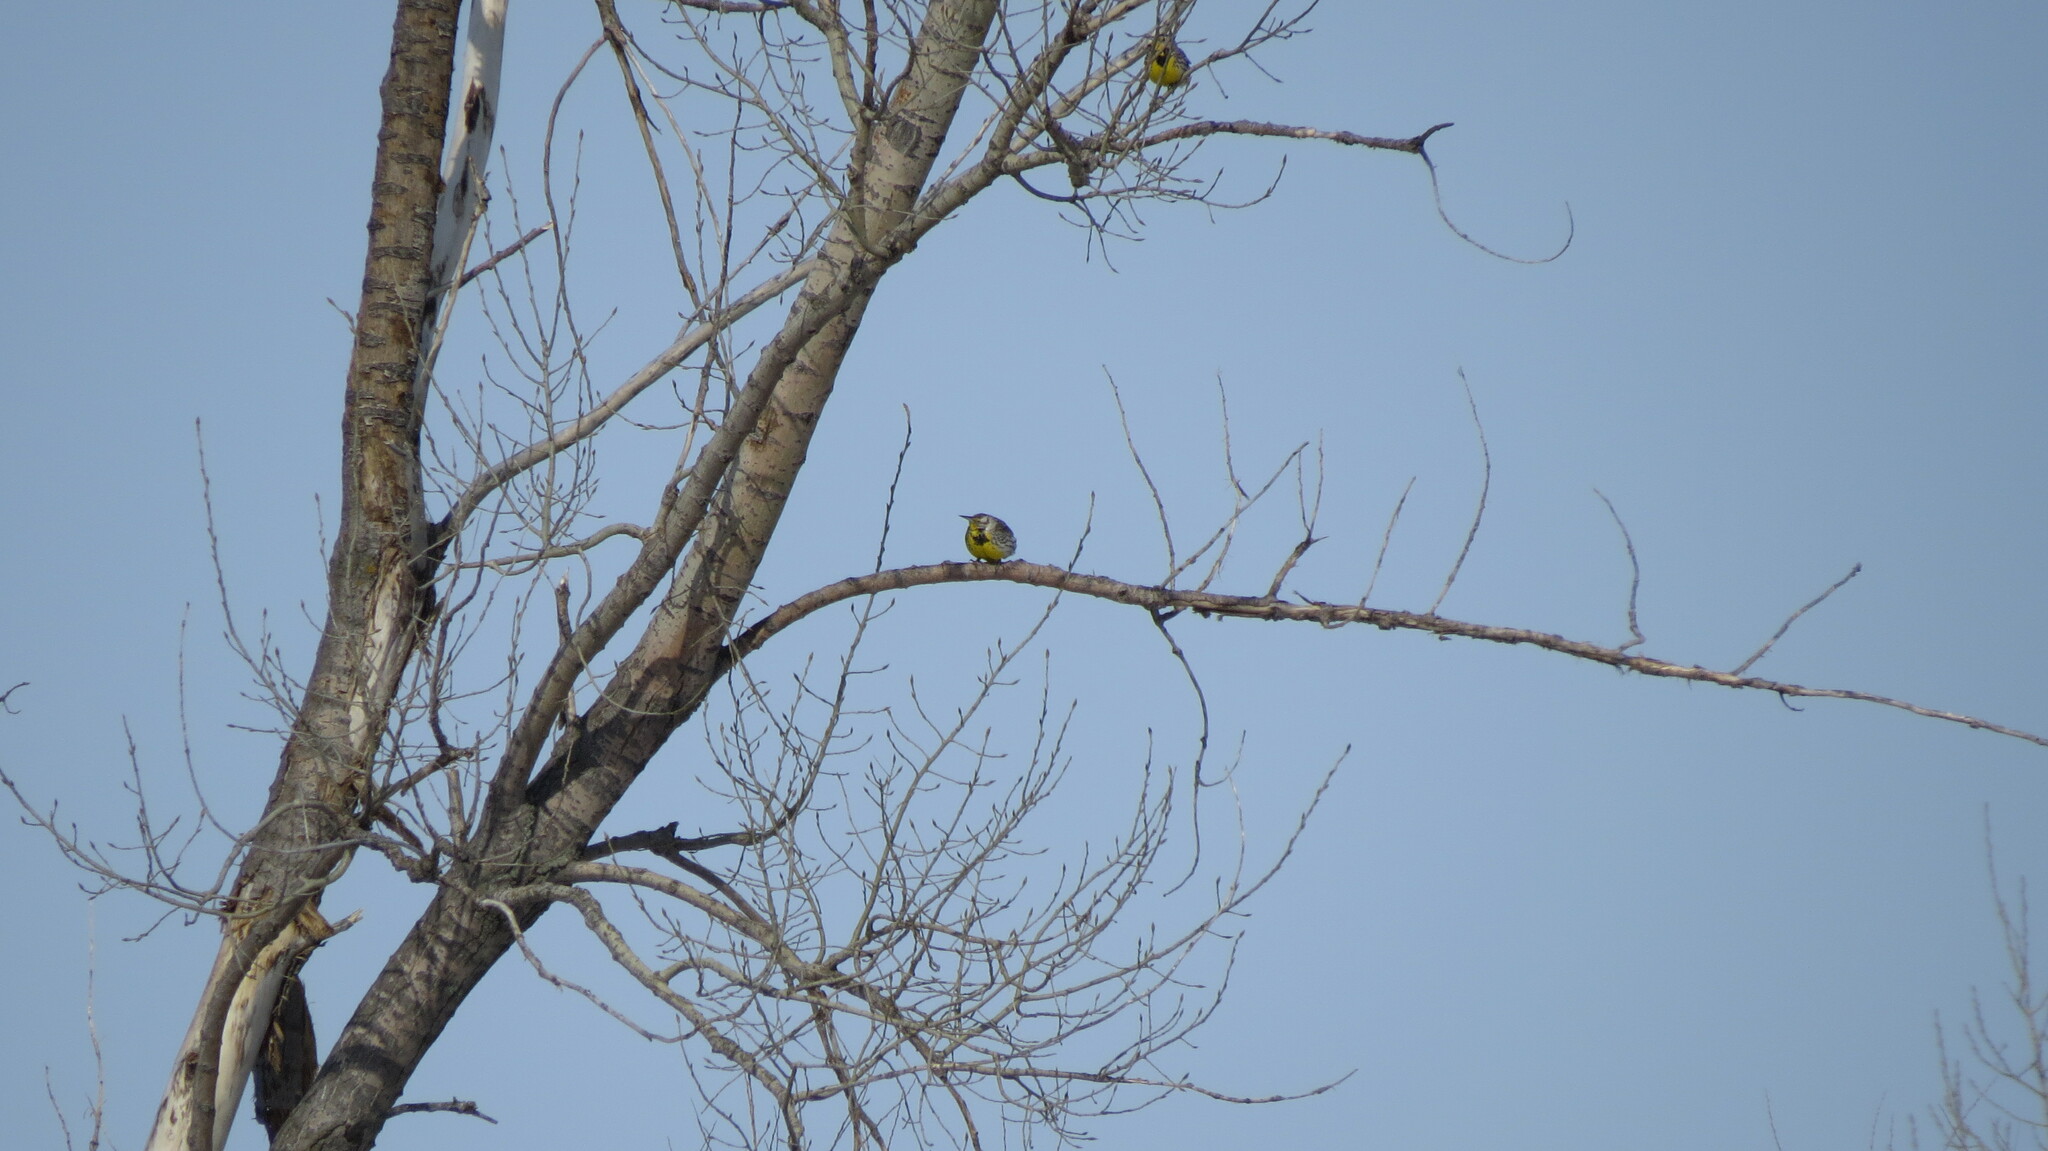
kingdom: Animalia
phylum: Chordata
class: Aves
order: Passeriformes
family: Icteridae
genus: Sturnella
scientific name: Sturnella neglecta
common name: Western meadowlark
